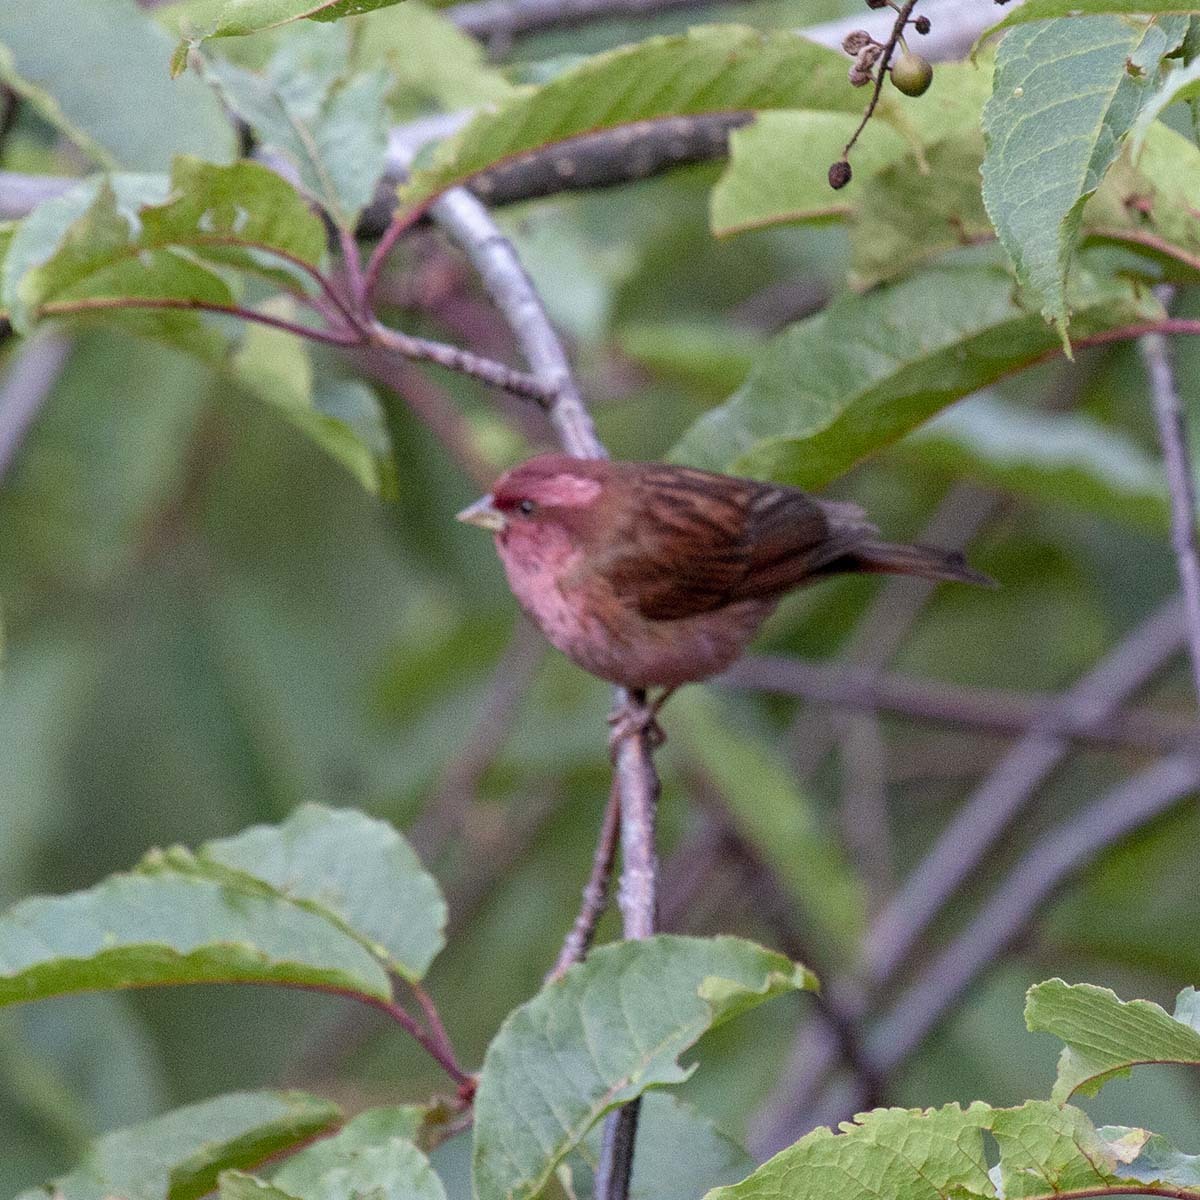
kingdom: Animalia
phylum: Chordata
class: Aves
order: Passeriformes
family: Fringillidae
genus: Carpodacus
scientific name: Carpodacus rodochroa
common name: Pink-browed rosefinch
